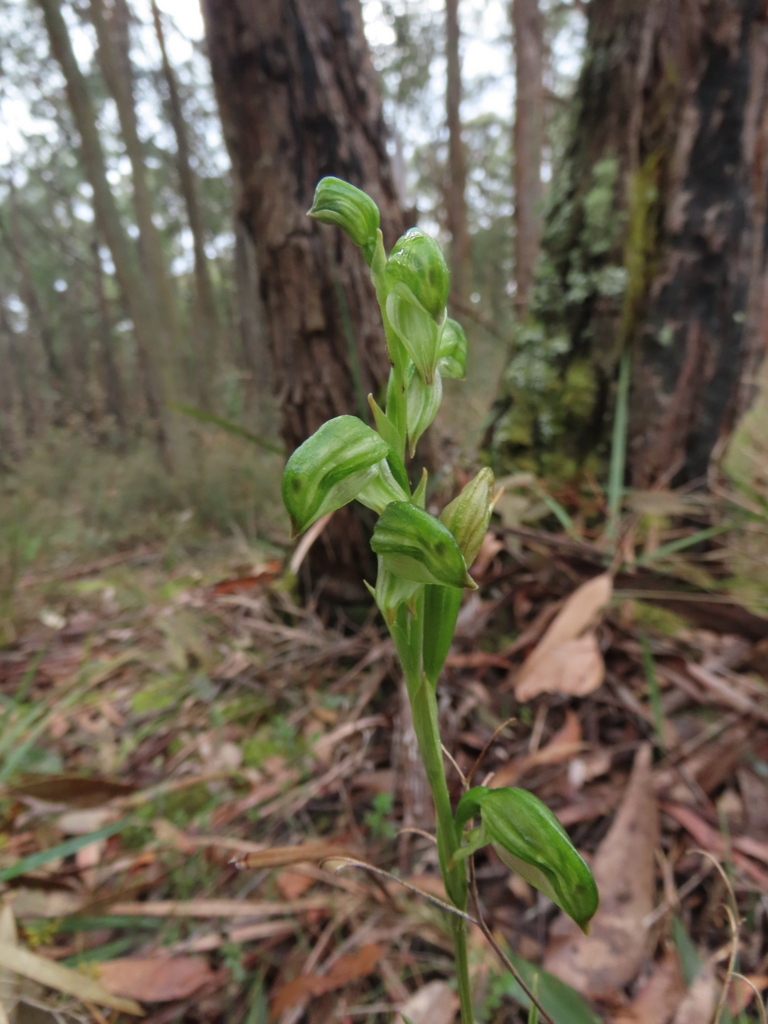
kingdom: Plantae
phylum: Tracheophyta
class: Liliopsida
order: Asparagales
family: Orchidaceae
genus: Pterostylis
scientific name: Pterostylis melagramma
